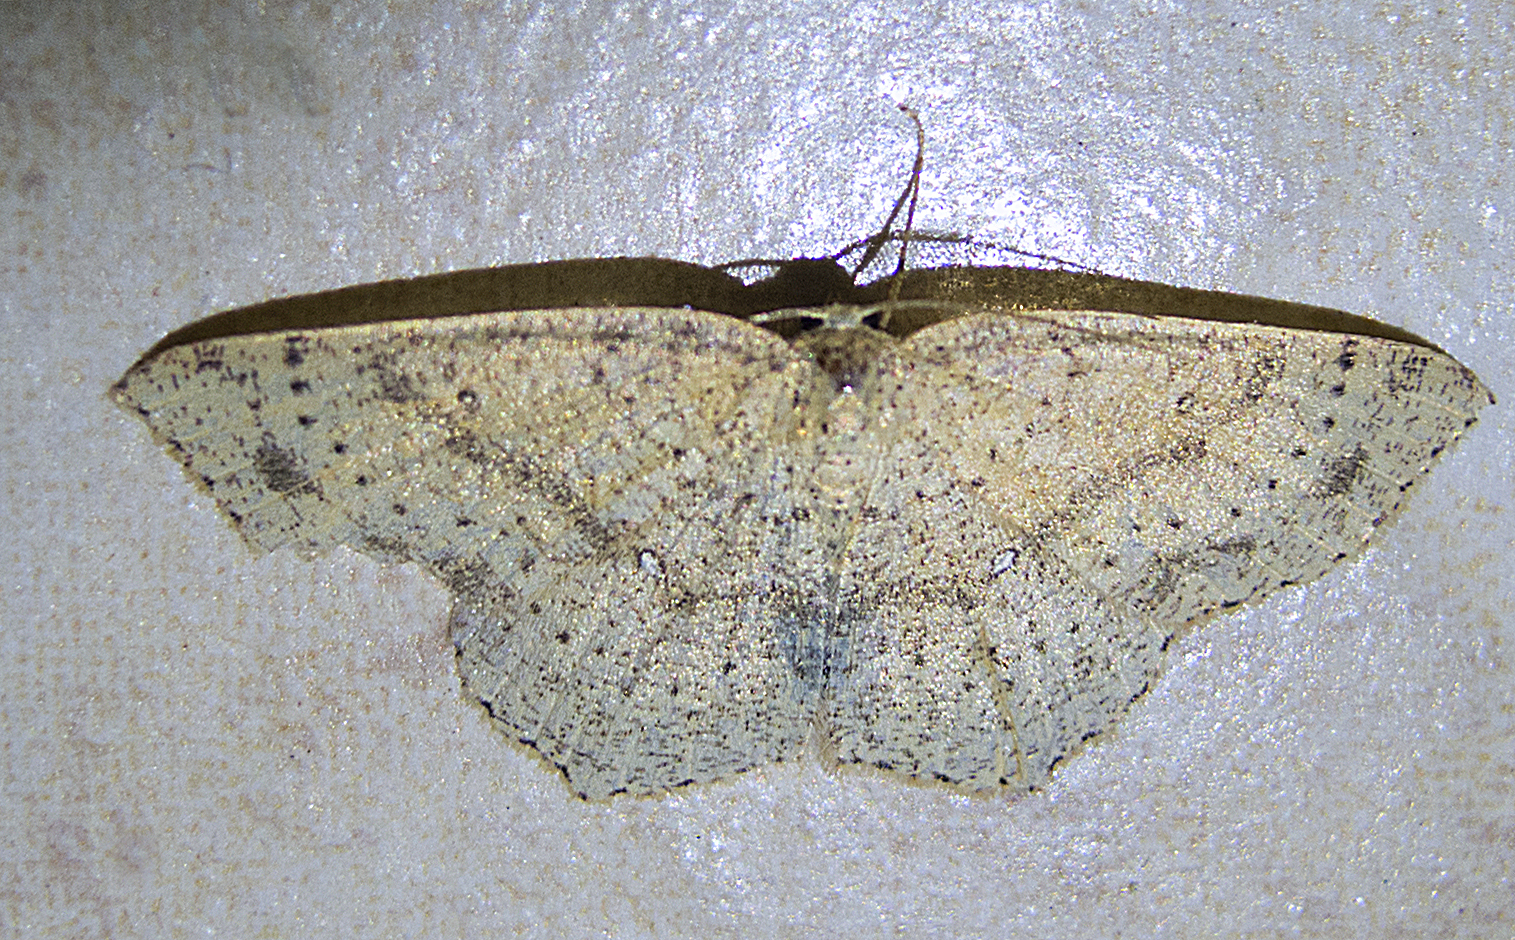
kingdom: Animalia
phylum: Arthropoda
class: Insecta
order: Lepidoptera
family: Geometridae
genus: Cyclophora
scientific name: Cyclophora punctaria
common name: Maiden's blush
